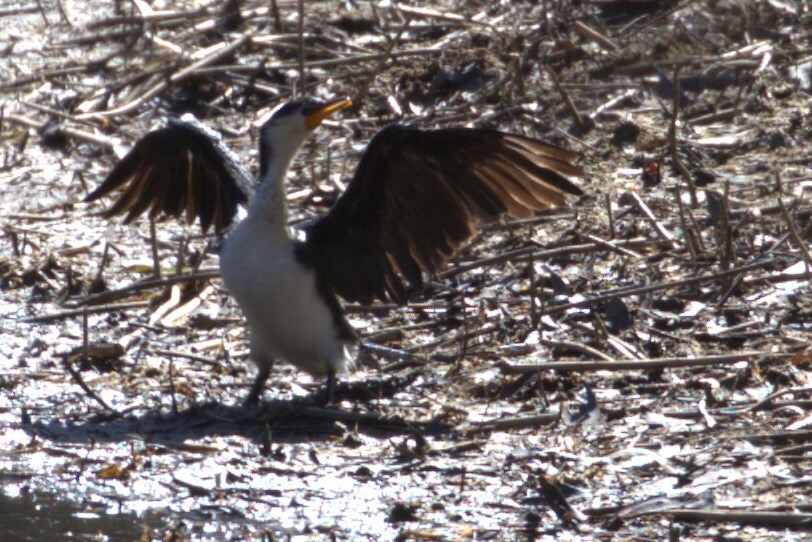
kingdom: Animalia
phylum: Chordata
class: Aves
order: Suliformes
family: Phalacrocoracidae
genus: Microcarbo
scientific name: Microcarbo melanoleucos
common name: Little pied cormorant
